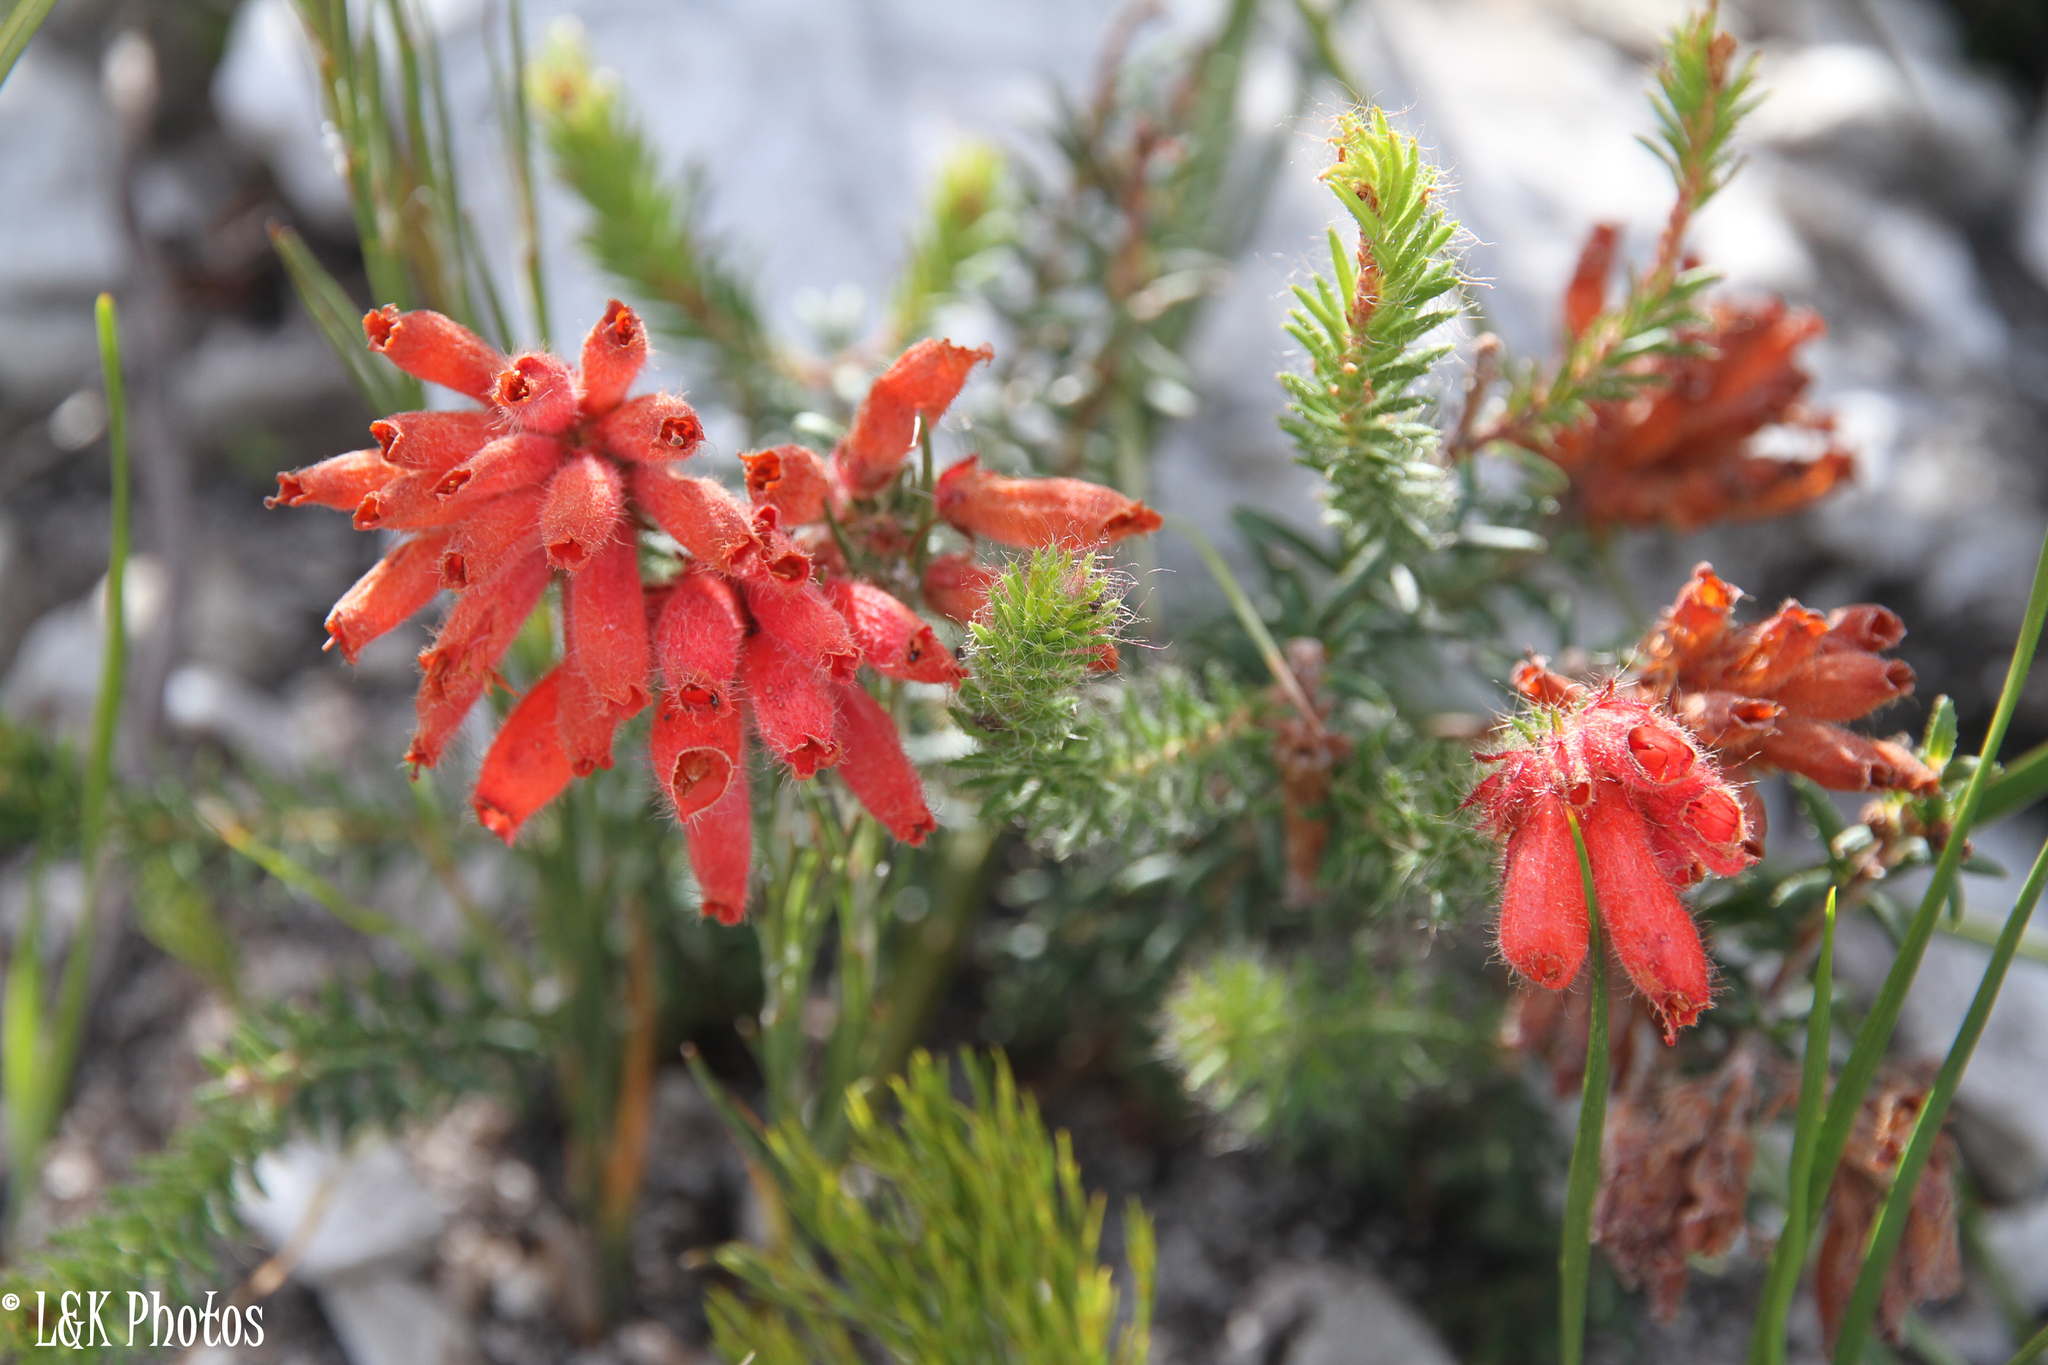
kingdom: Plantae
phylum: Tracheophyta
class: Magnoliopsida
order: Ericales
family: Ericaceae
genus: Erica
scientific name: Erica cerinthoides
